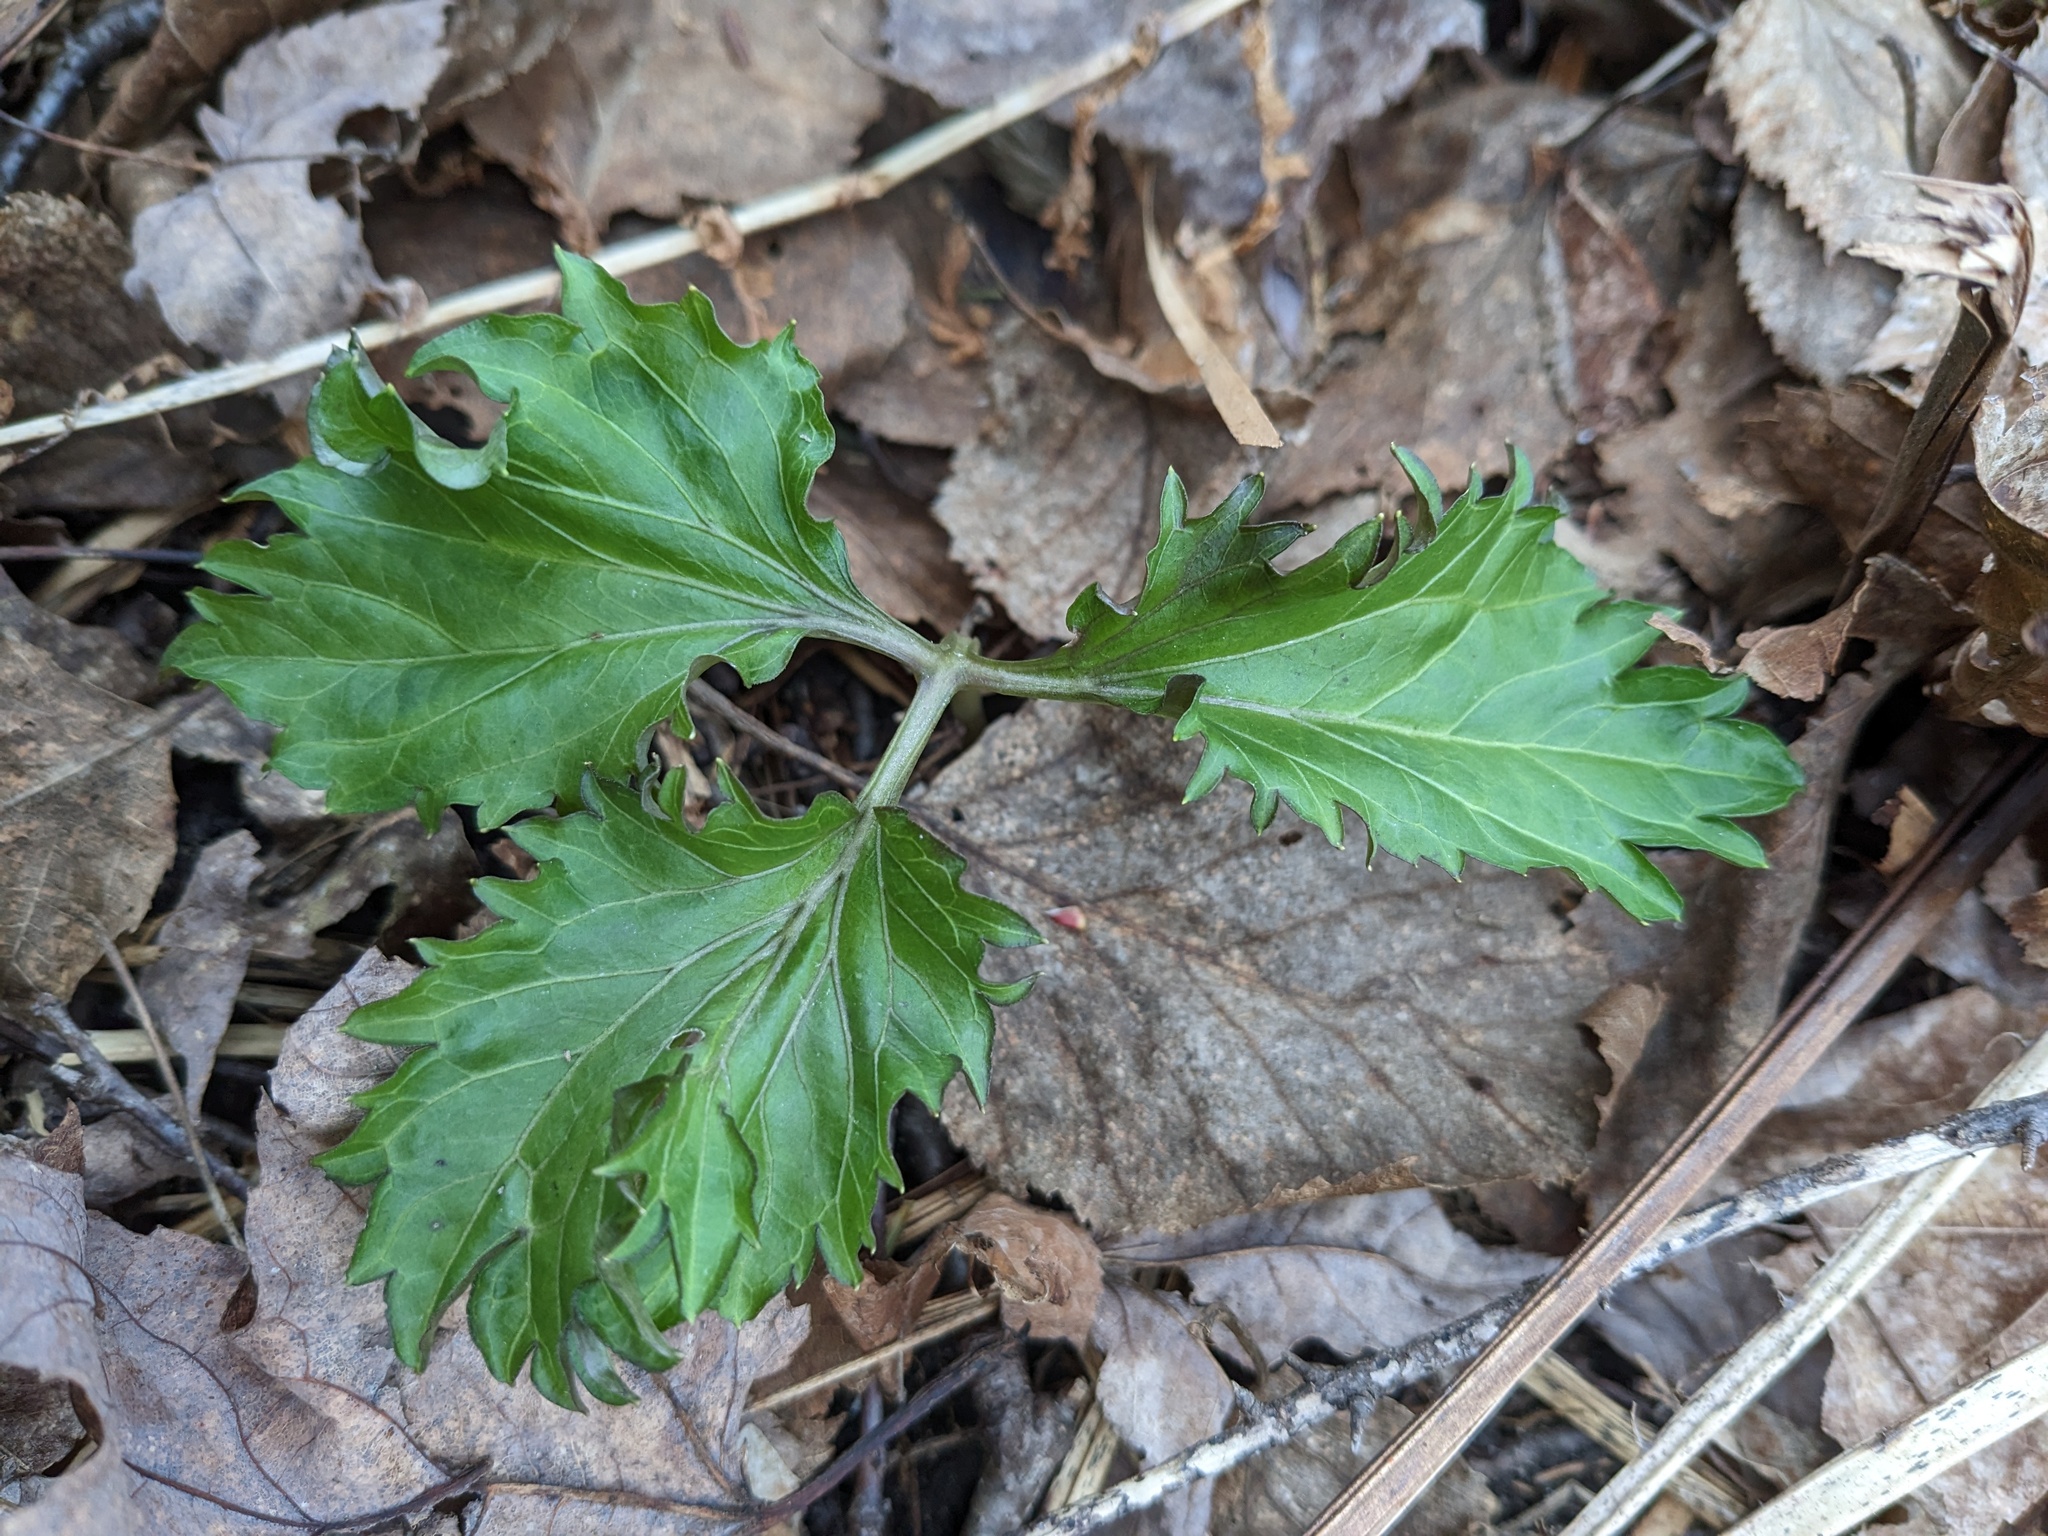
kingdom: Plantae
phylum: Tracheophyta
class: Magnoliopsida
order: Brassicales
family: Brassicaceae
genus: Cardamine
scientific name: Cardamine diphylla
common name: Broad-leaved toothwort
